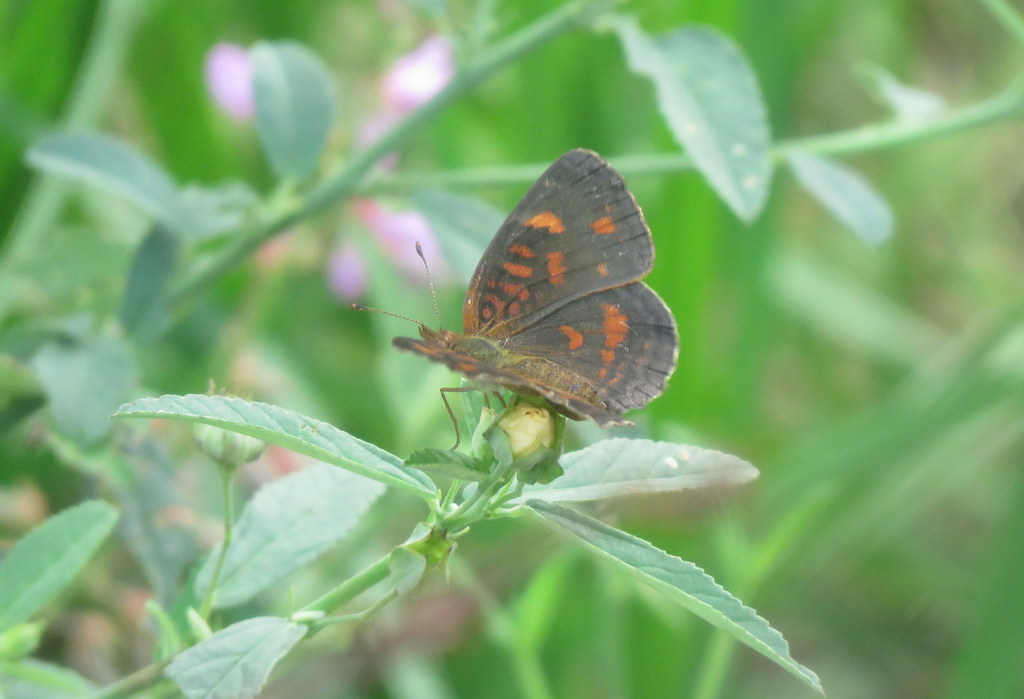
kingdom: Animalia
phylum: Arthropoda
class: Insecta
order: Lepidoptera
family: Nymphalidae
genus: Ortilia
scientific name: Ortilia velica
